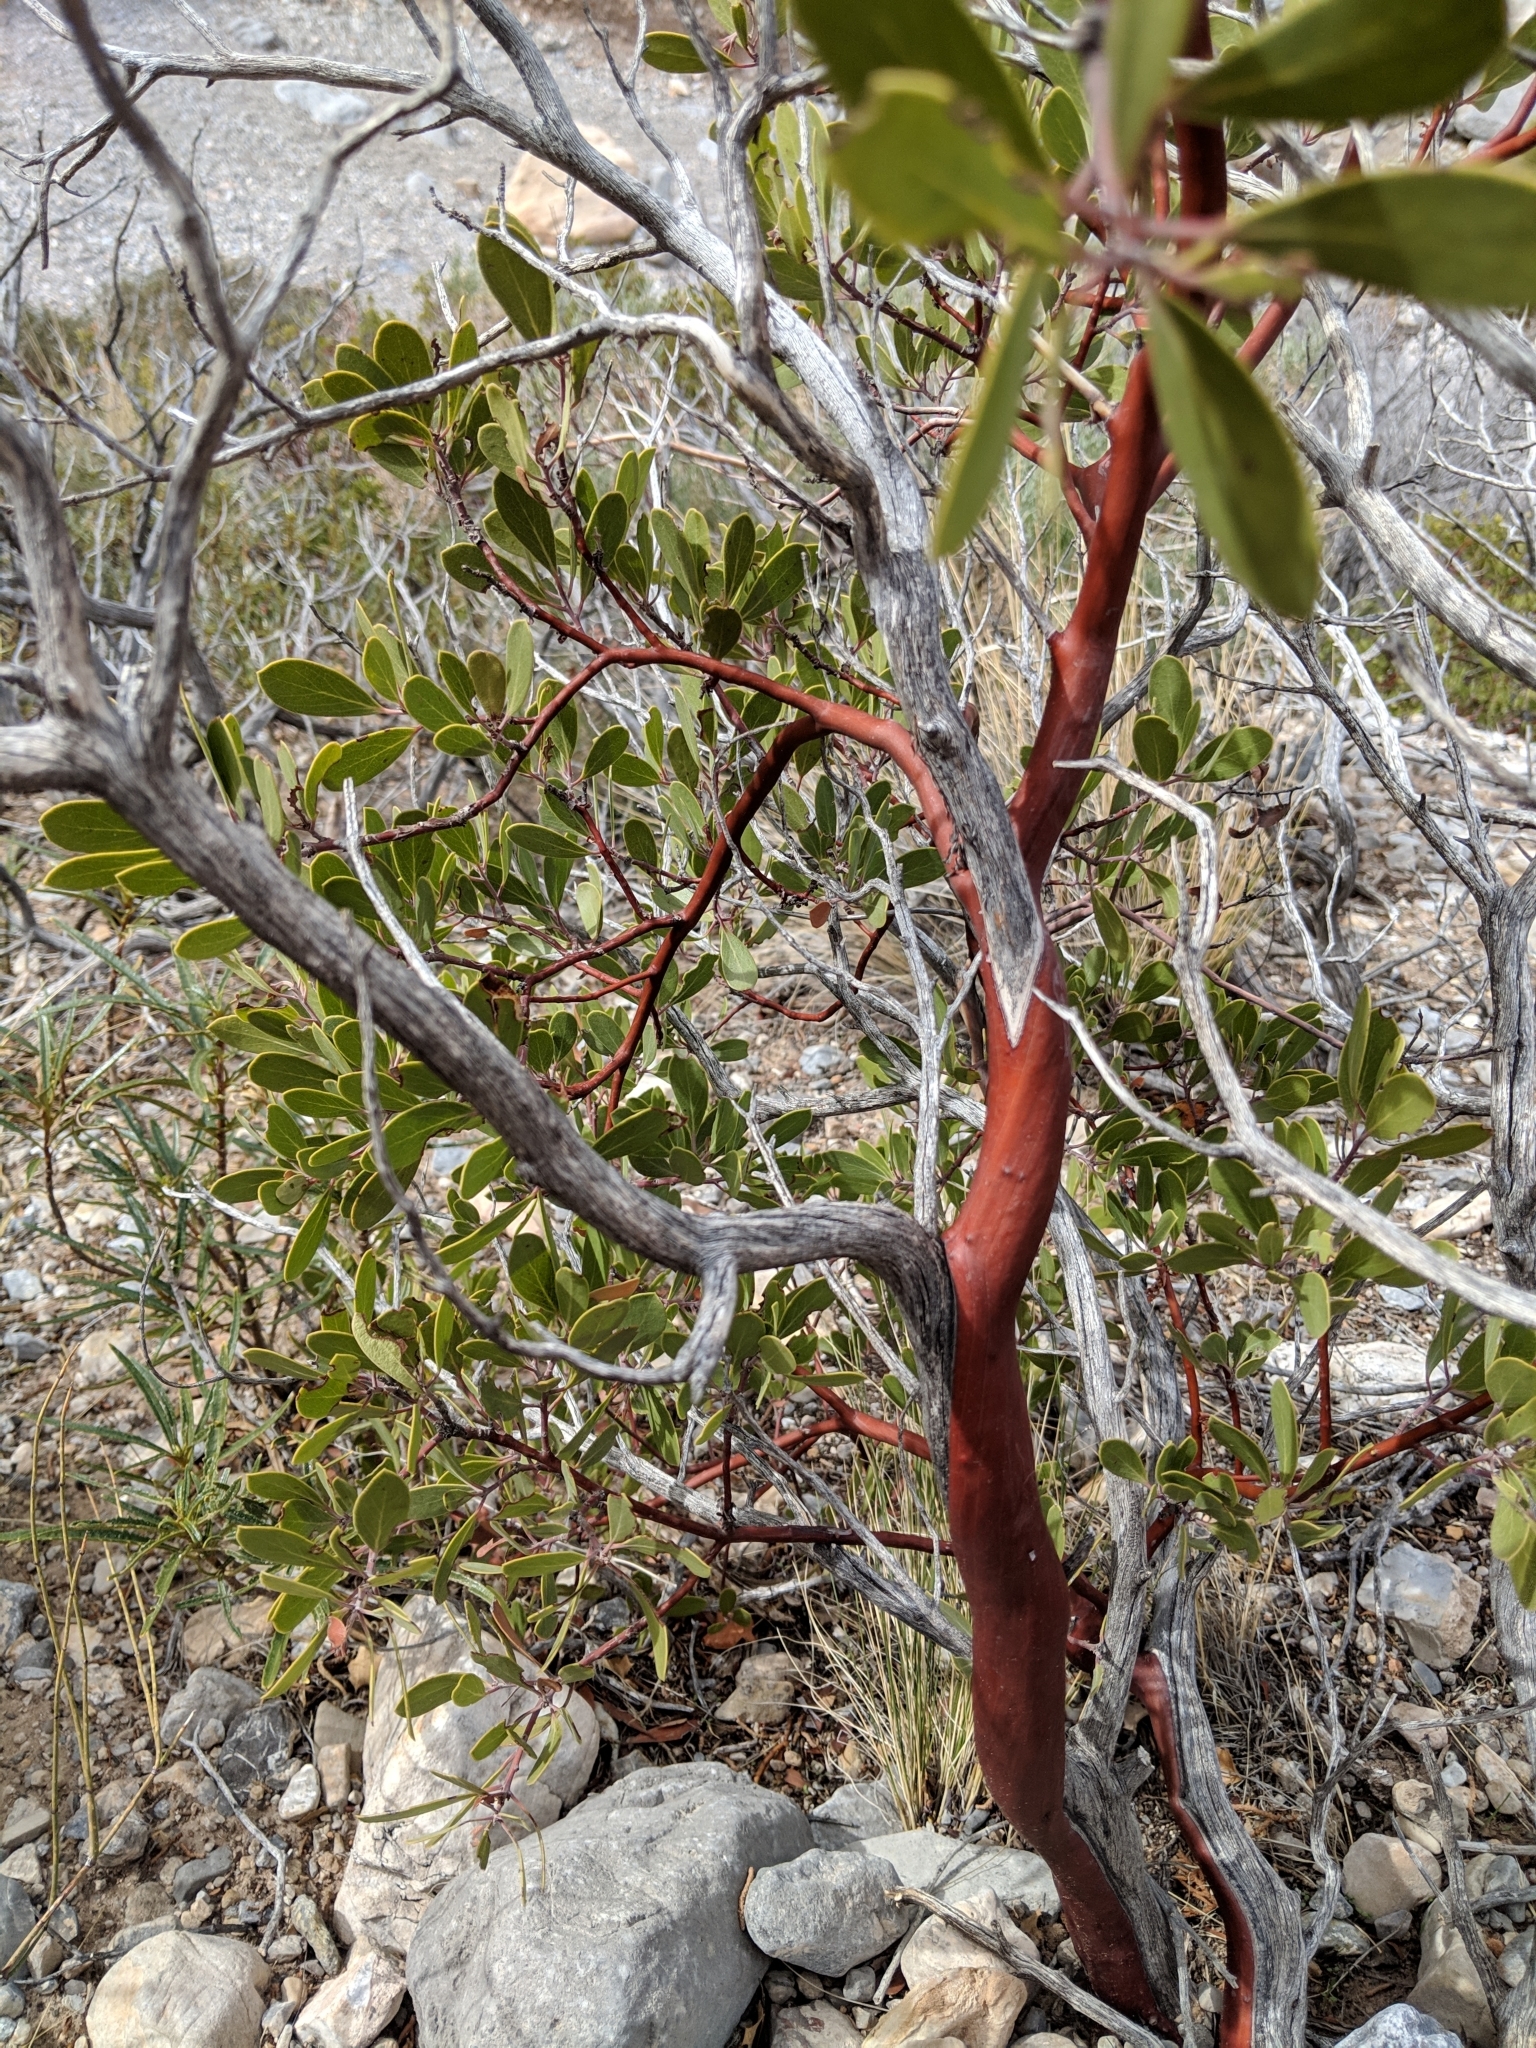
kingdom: Plantae
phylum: Tracheophyta
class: Magnoliopsida
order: Ericales
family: Ericaceae
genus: Arctostaphylos
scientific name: Arctostaphylos pungens
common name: Mexican manzanita
